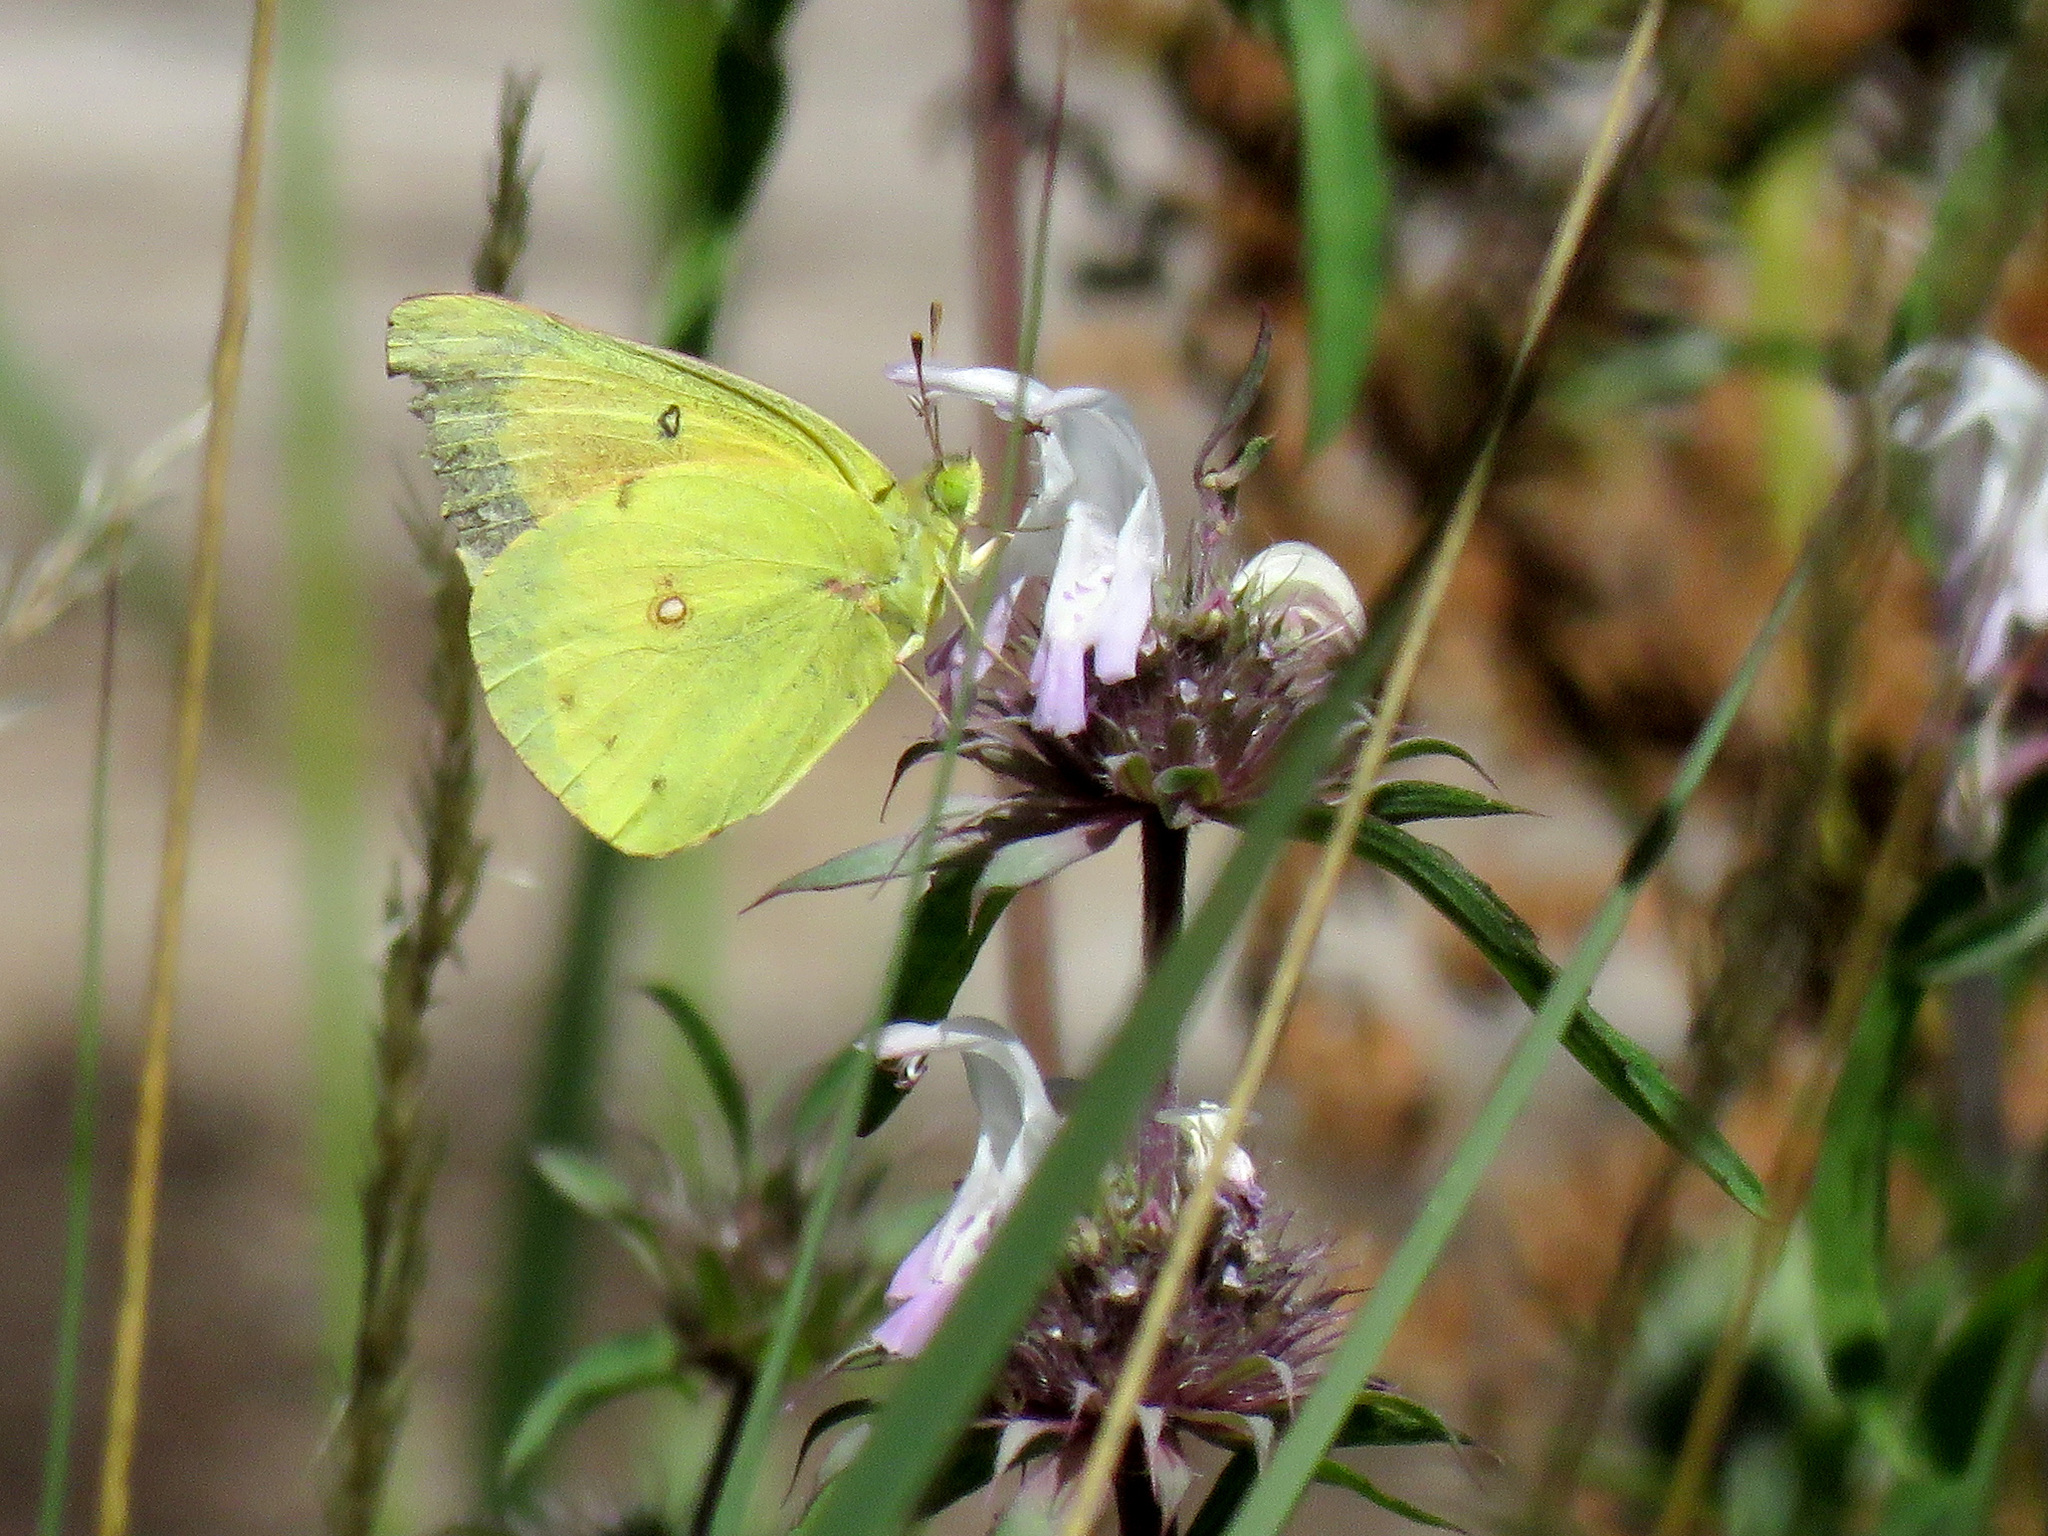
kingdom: Animalia
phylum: Arthropoda
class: Insecta
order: Lepidoptera
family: Pieridae
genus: Colias
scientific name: Colias eurytheme
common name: Alfalfa butterfly
